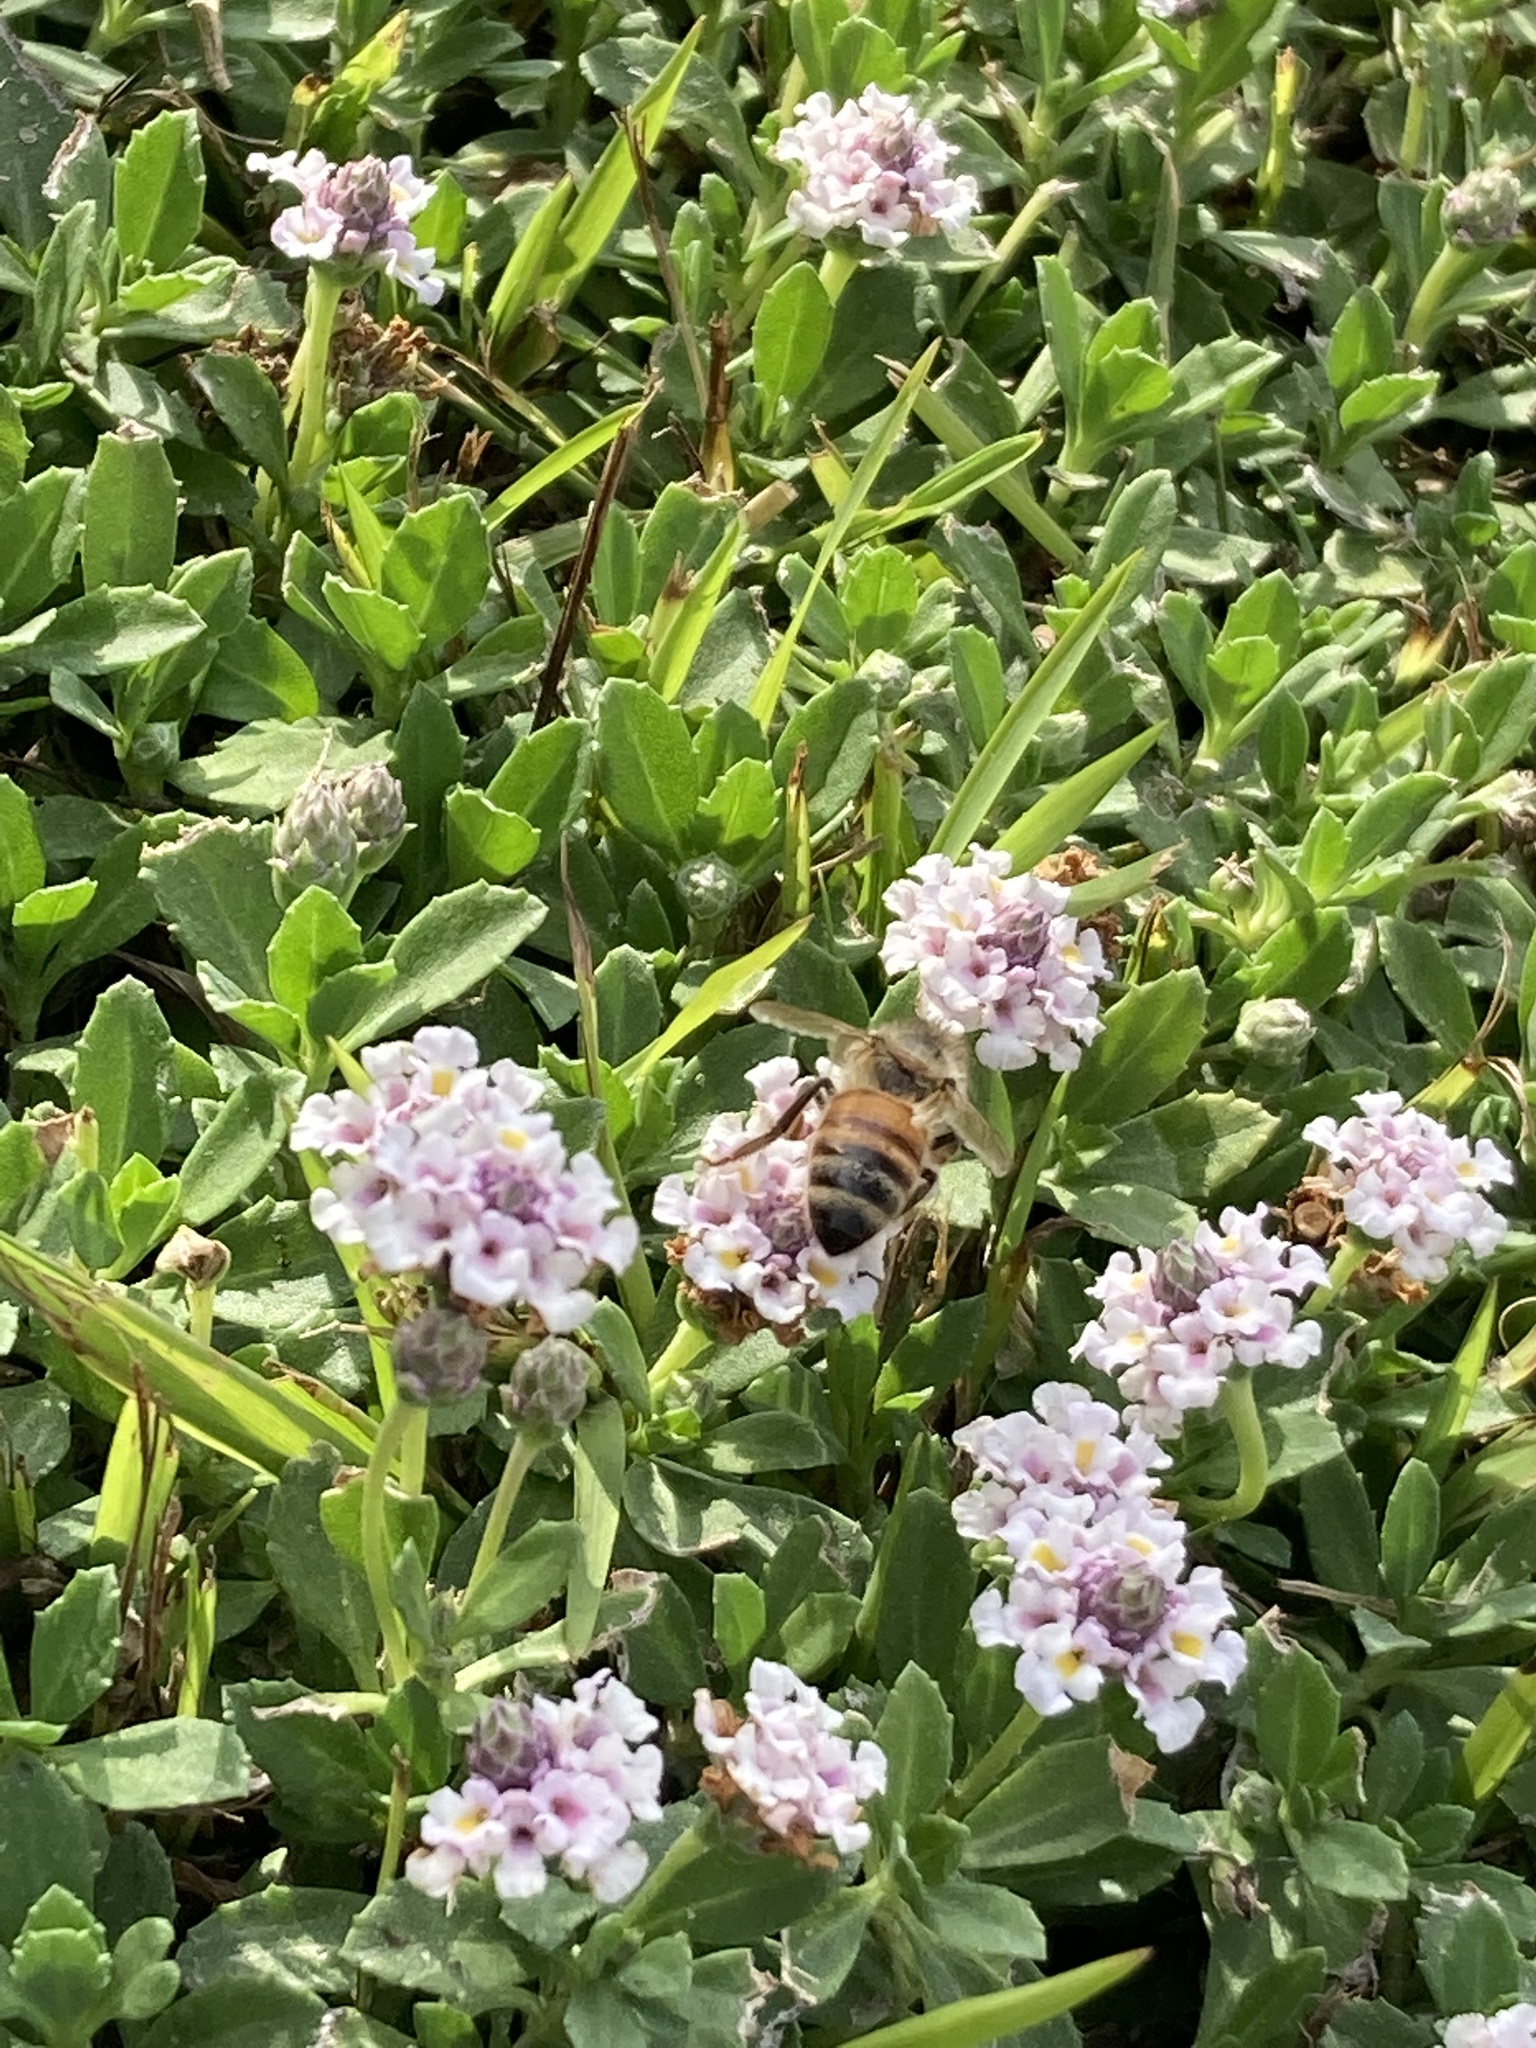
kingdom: Animalia
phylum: Arthropoda
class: Insecta
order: Hymenoptera
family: Apidae
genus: Apis
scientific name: Apis mellifera
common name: Honey bee
